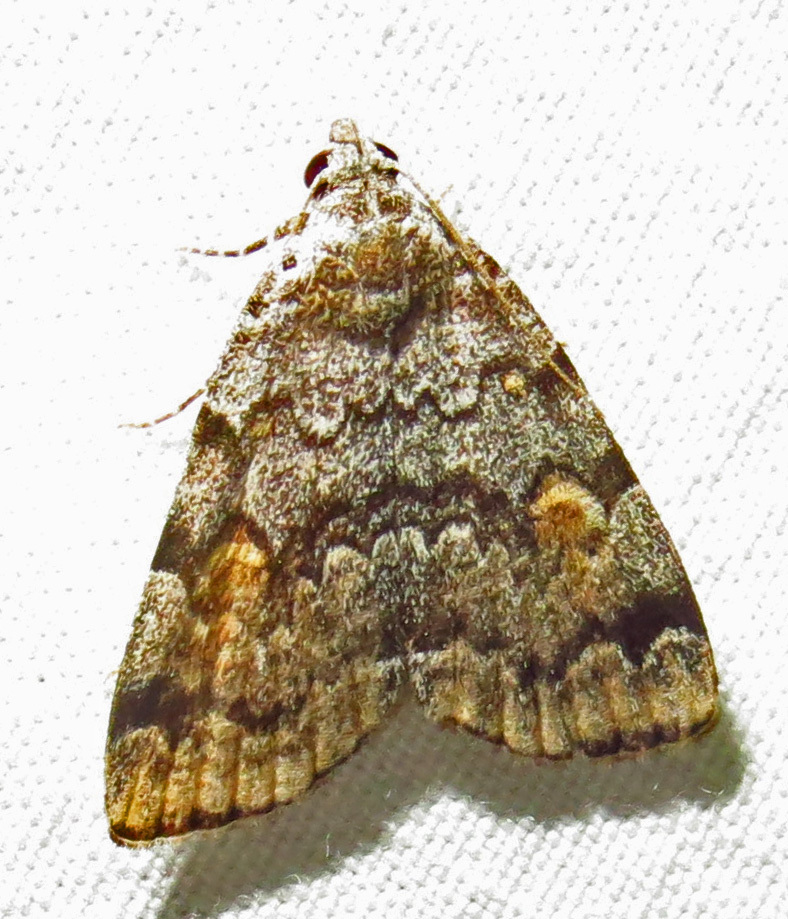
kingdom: Animalia
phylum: Arthropoda
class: Insecta
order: Lepidoptera
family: Erebidae
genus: Idia
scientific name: Idia americalis
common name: American idia moth
